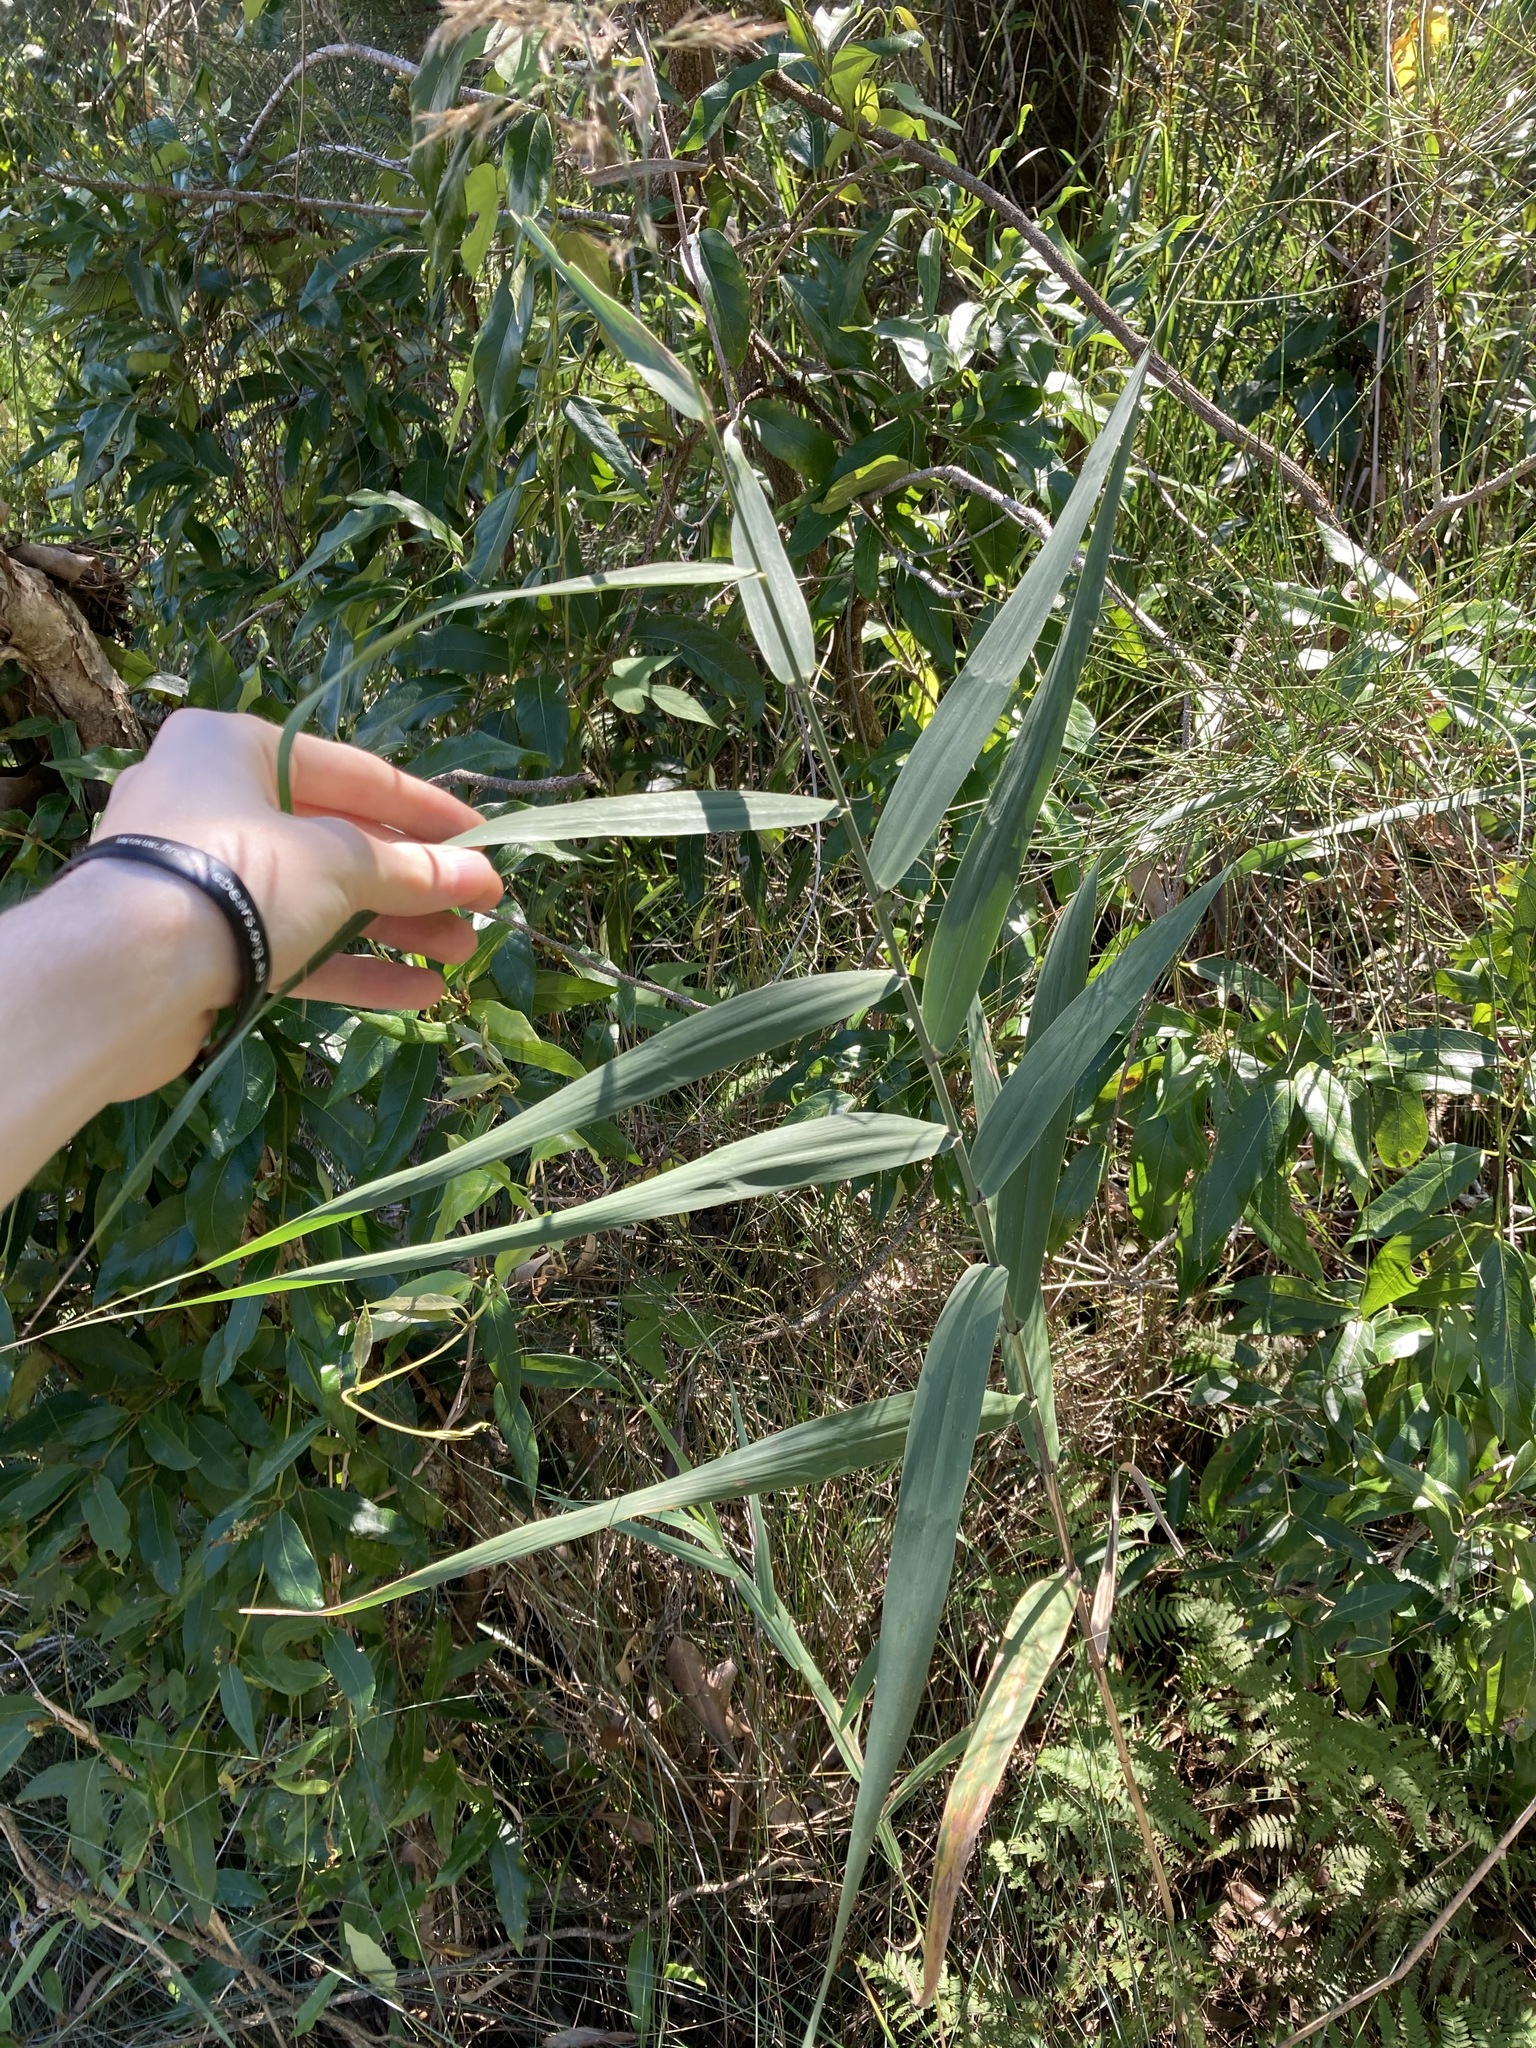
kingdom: Plantae
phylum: Tracheophyta
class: Liliopsida
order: Poales
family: Poaceae
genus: Phragmites
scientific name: Phragmites australis
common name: Common reed
